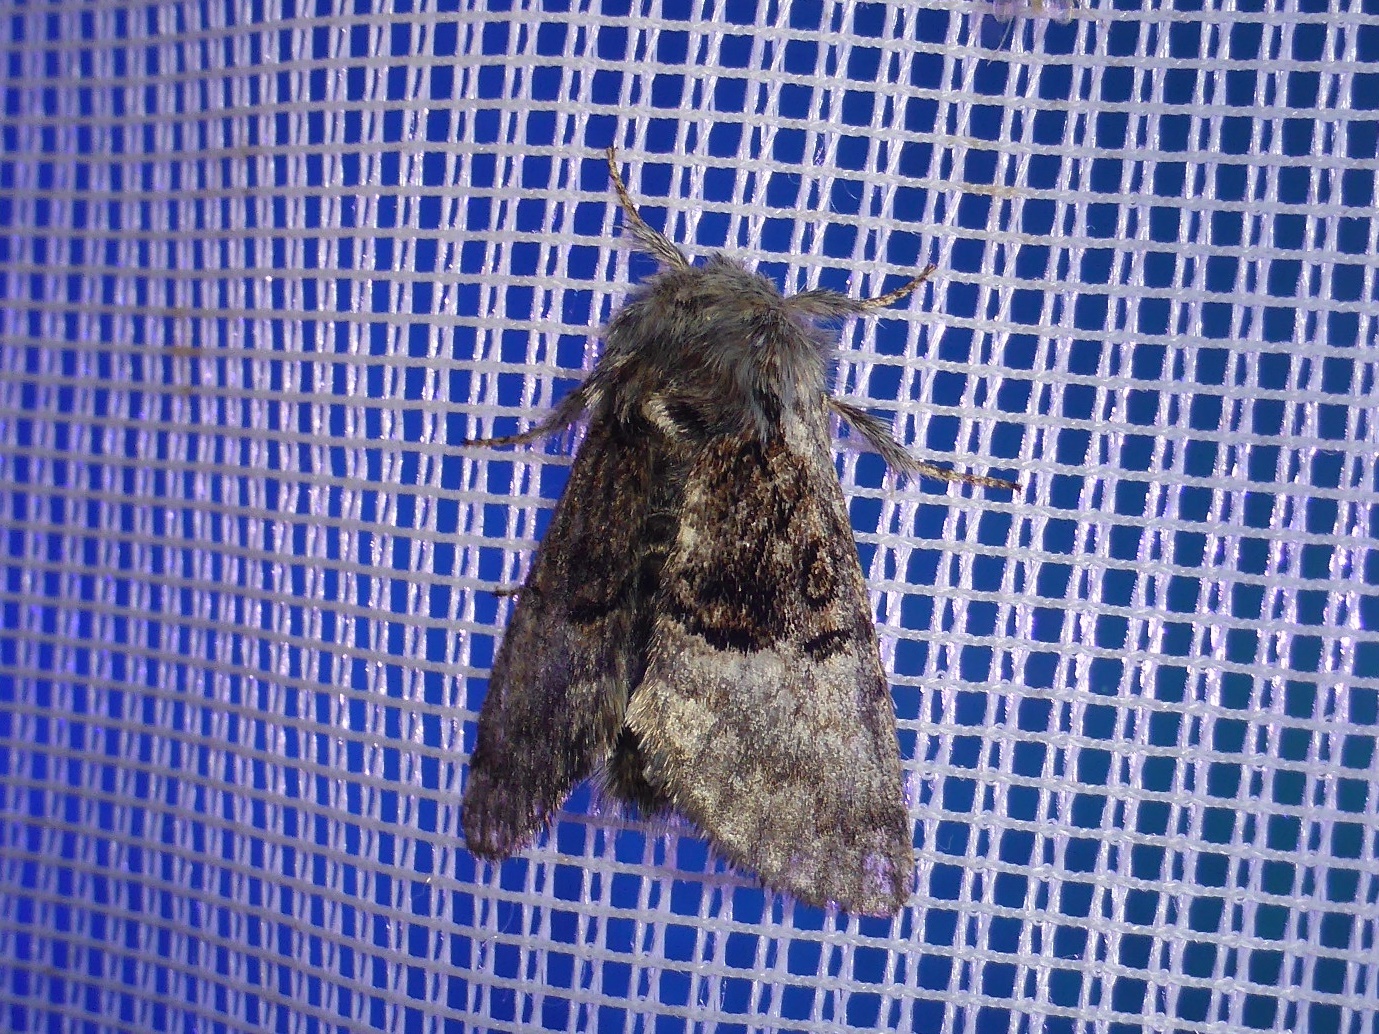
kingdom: Animalia
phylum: Arthropoda
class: Insecta
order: Lepidoptera
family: Noctuidae
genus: Colocasia
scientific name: Colocasia coryli
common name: Nut-tree tussock
